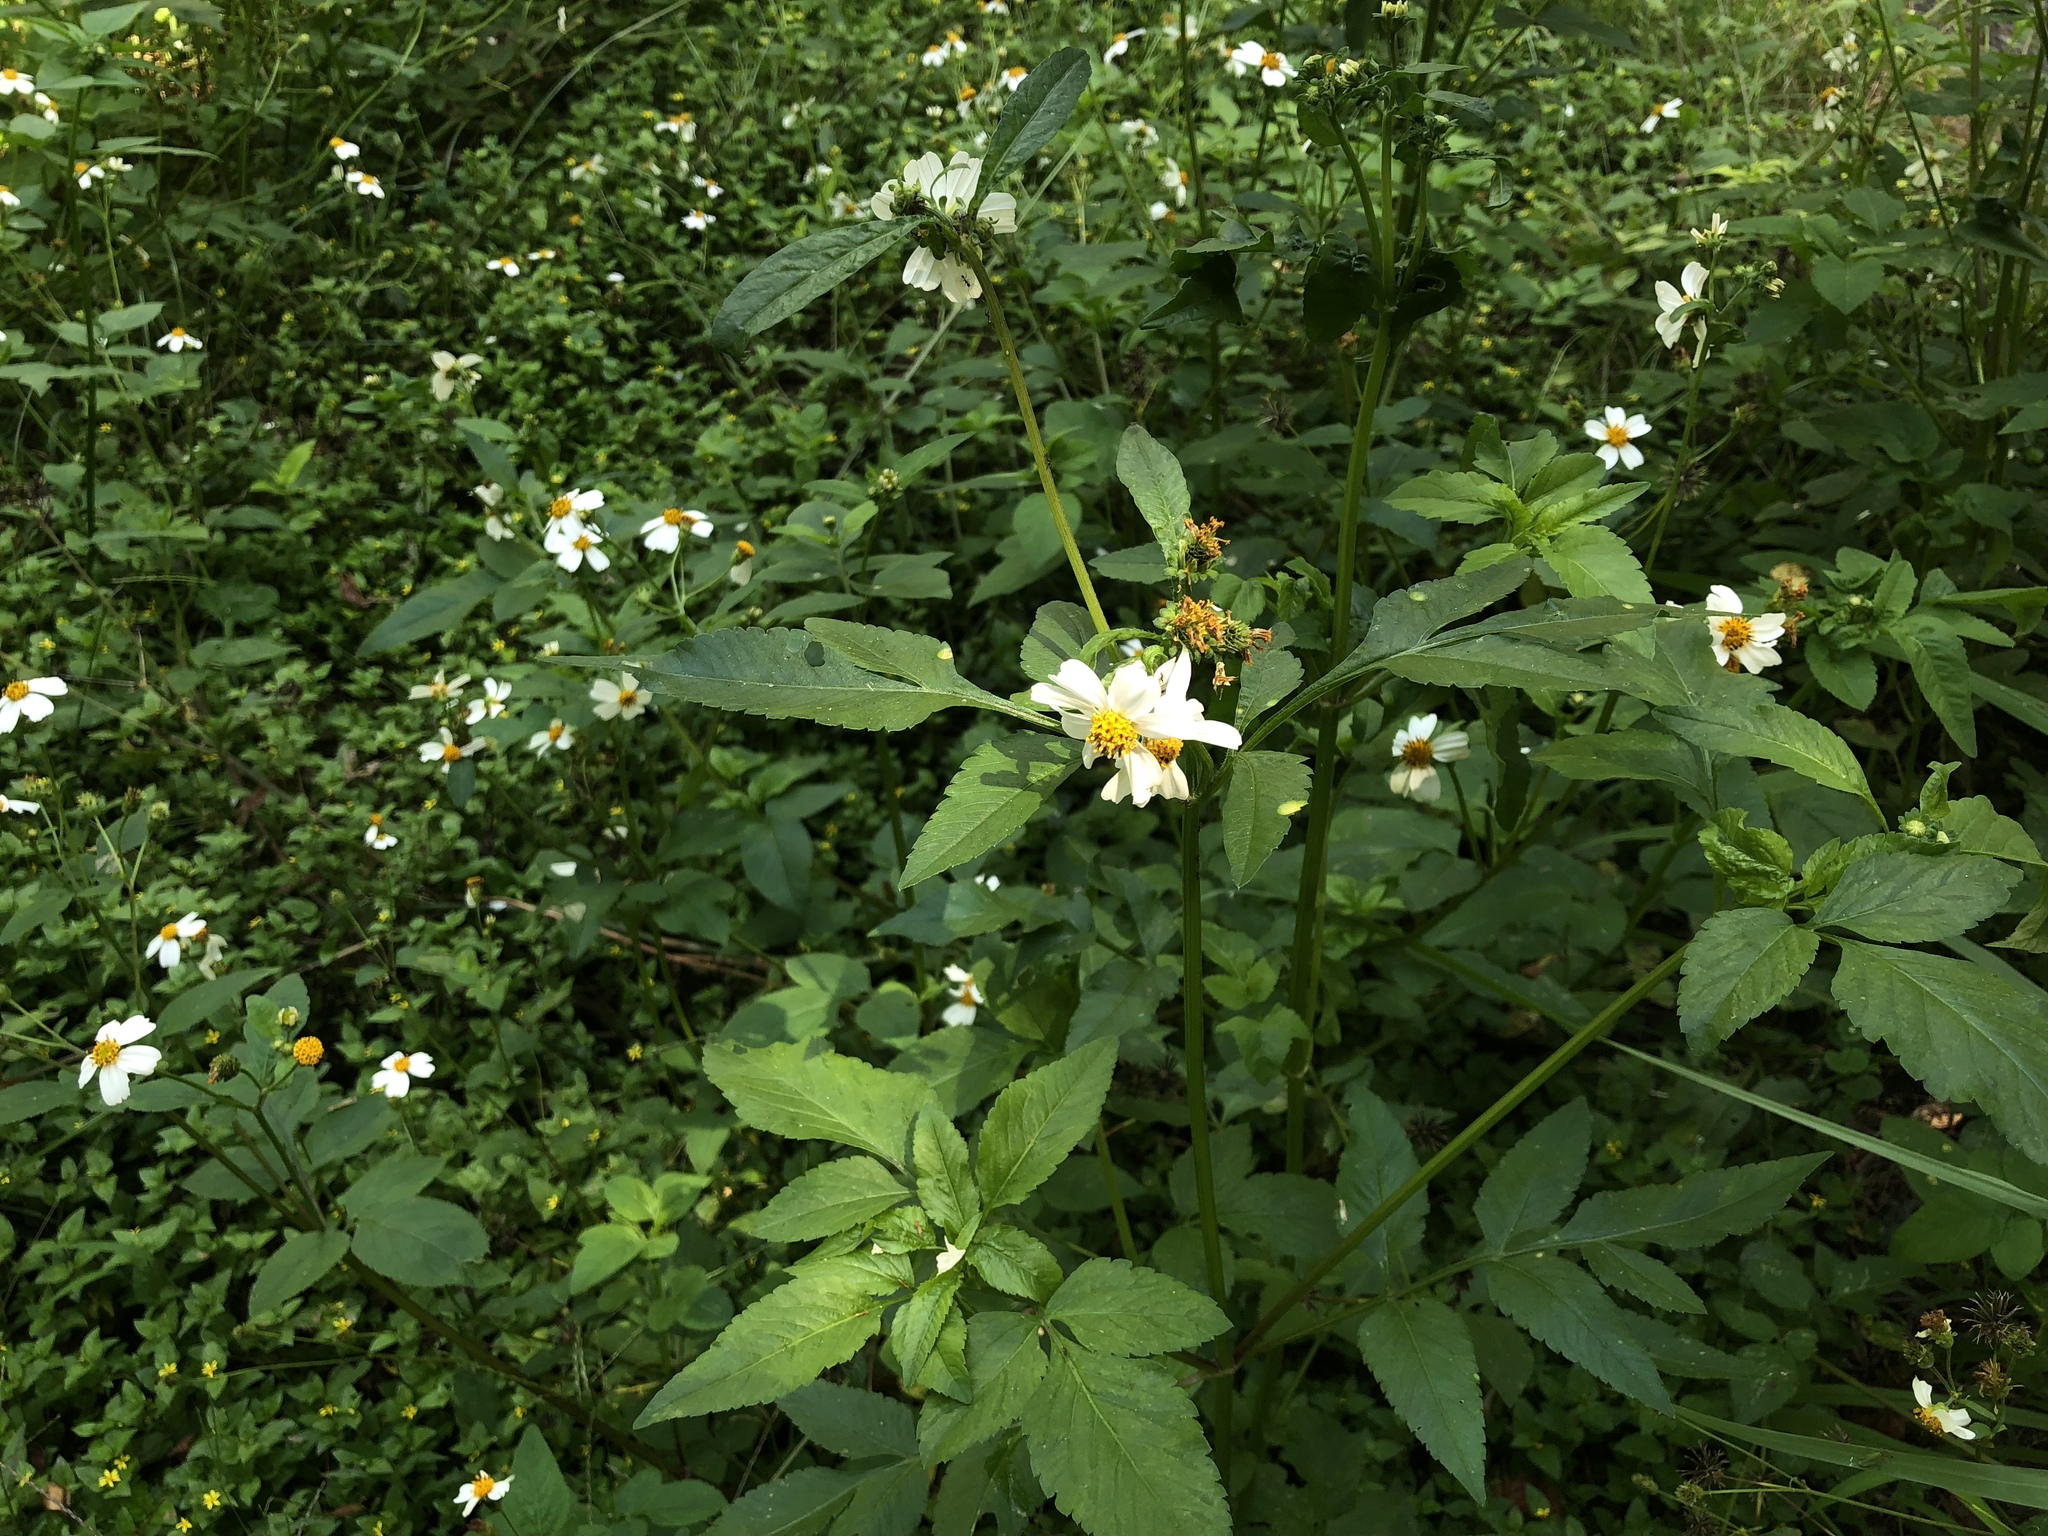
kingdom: Plantae
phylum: Tracheophyta
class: Magnoliopsida
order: Asterales
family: Asteraceae
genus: Bidens
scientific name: Bidens alba
